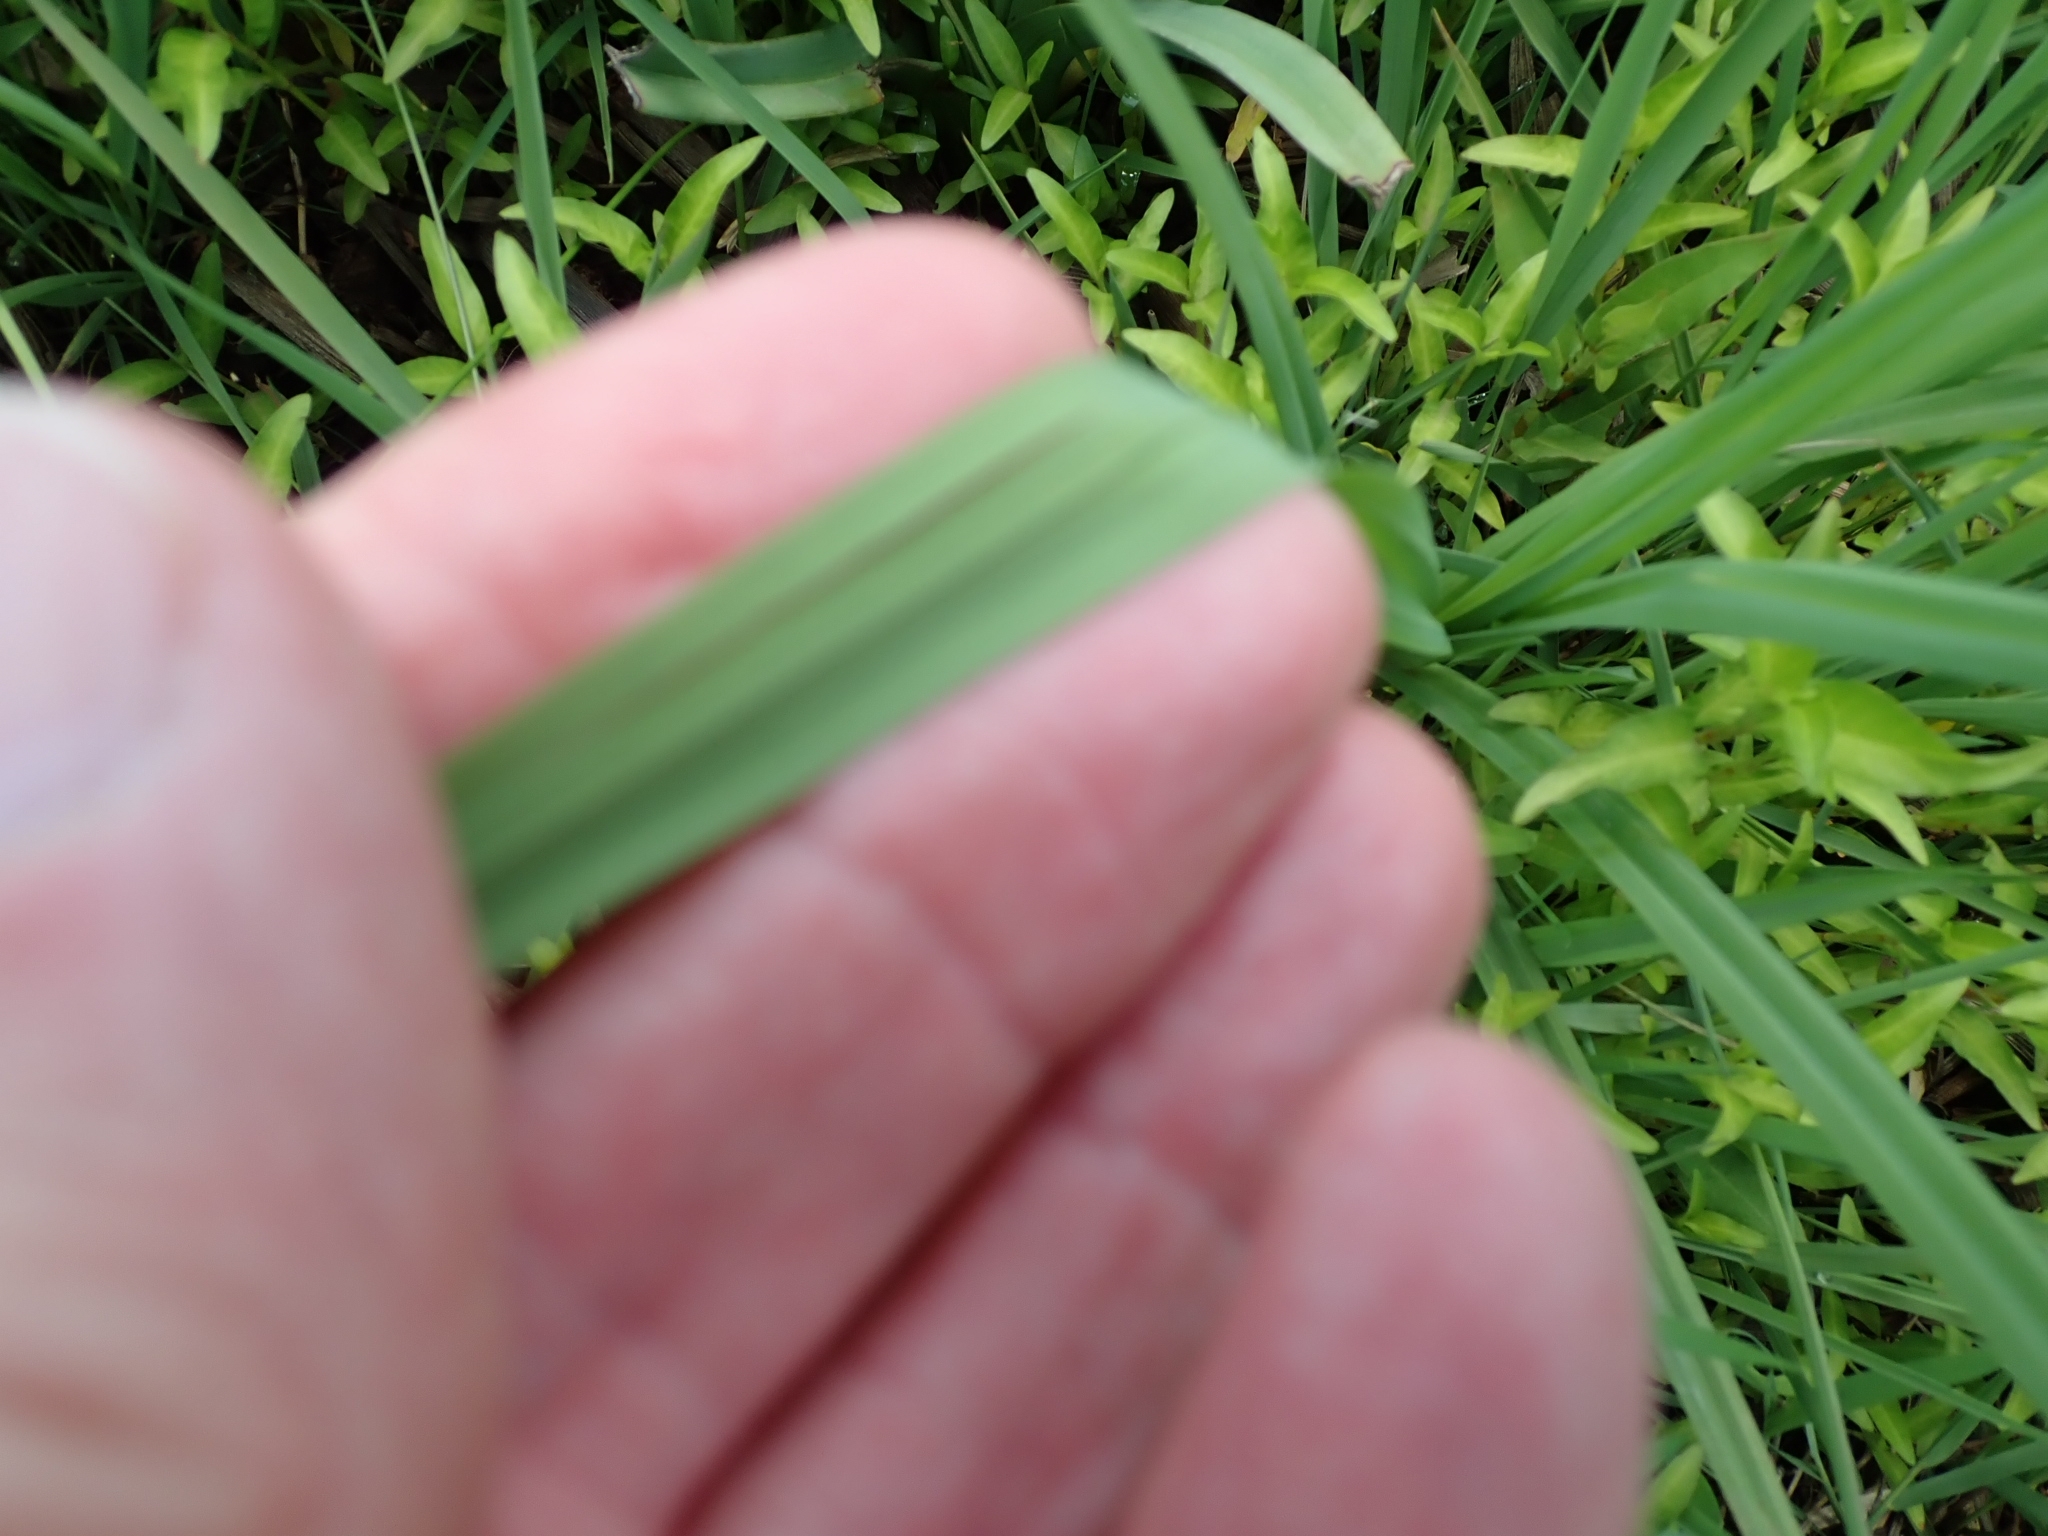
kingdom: Plantae
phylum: Tracheophyta
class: Liliopsida
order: Asparagales
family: Asphodelaceae
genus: Kniphofia
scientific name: Kniphofia fluviatilis
